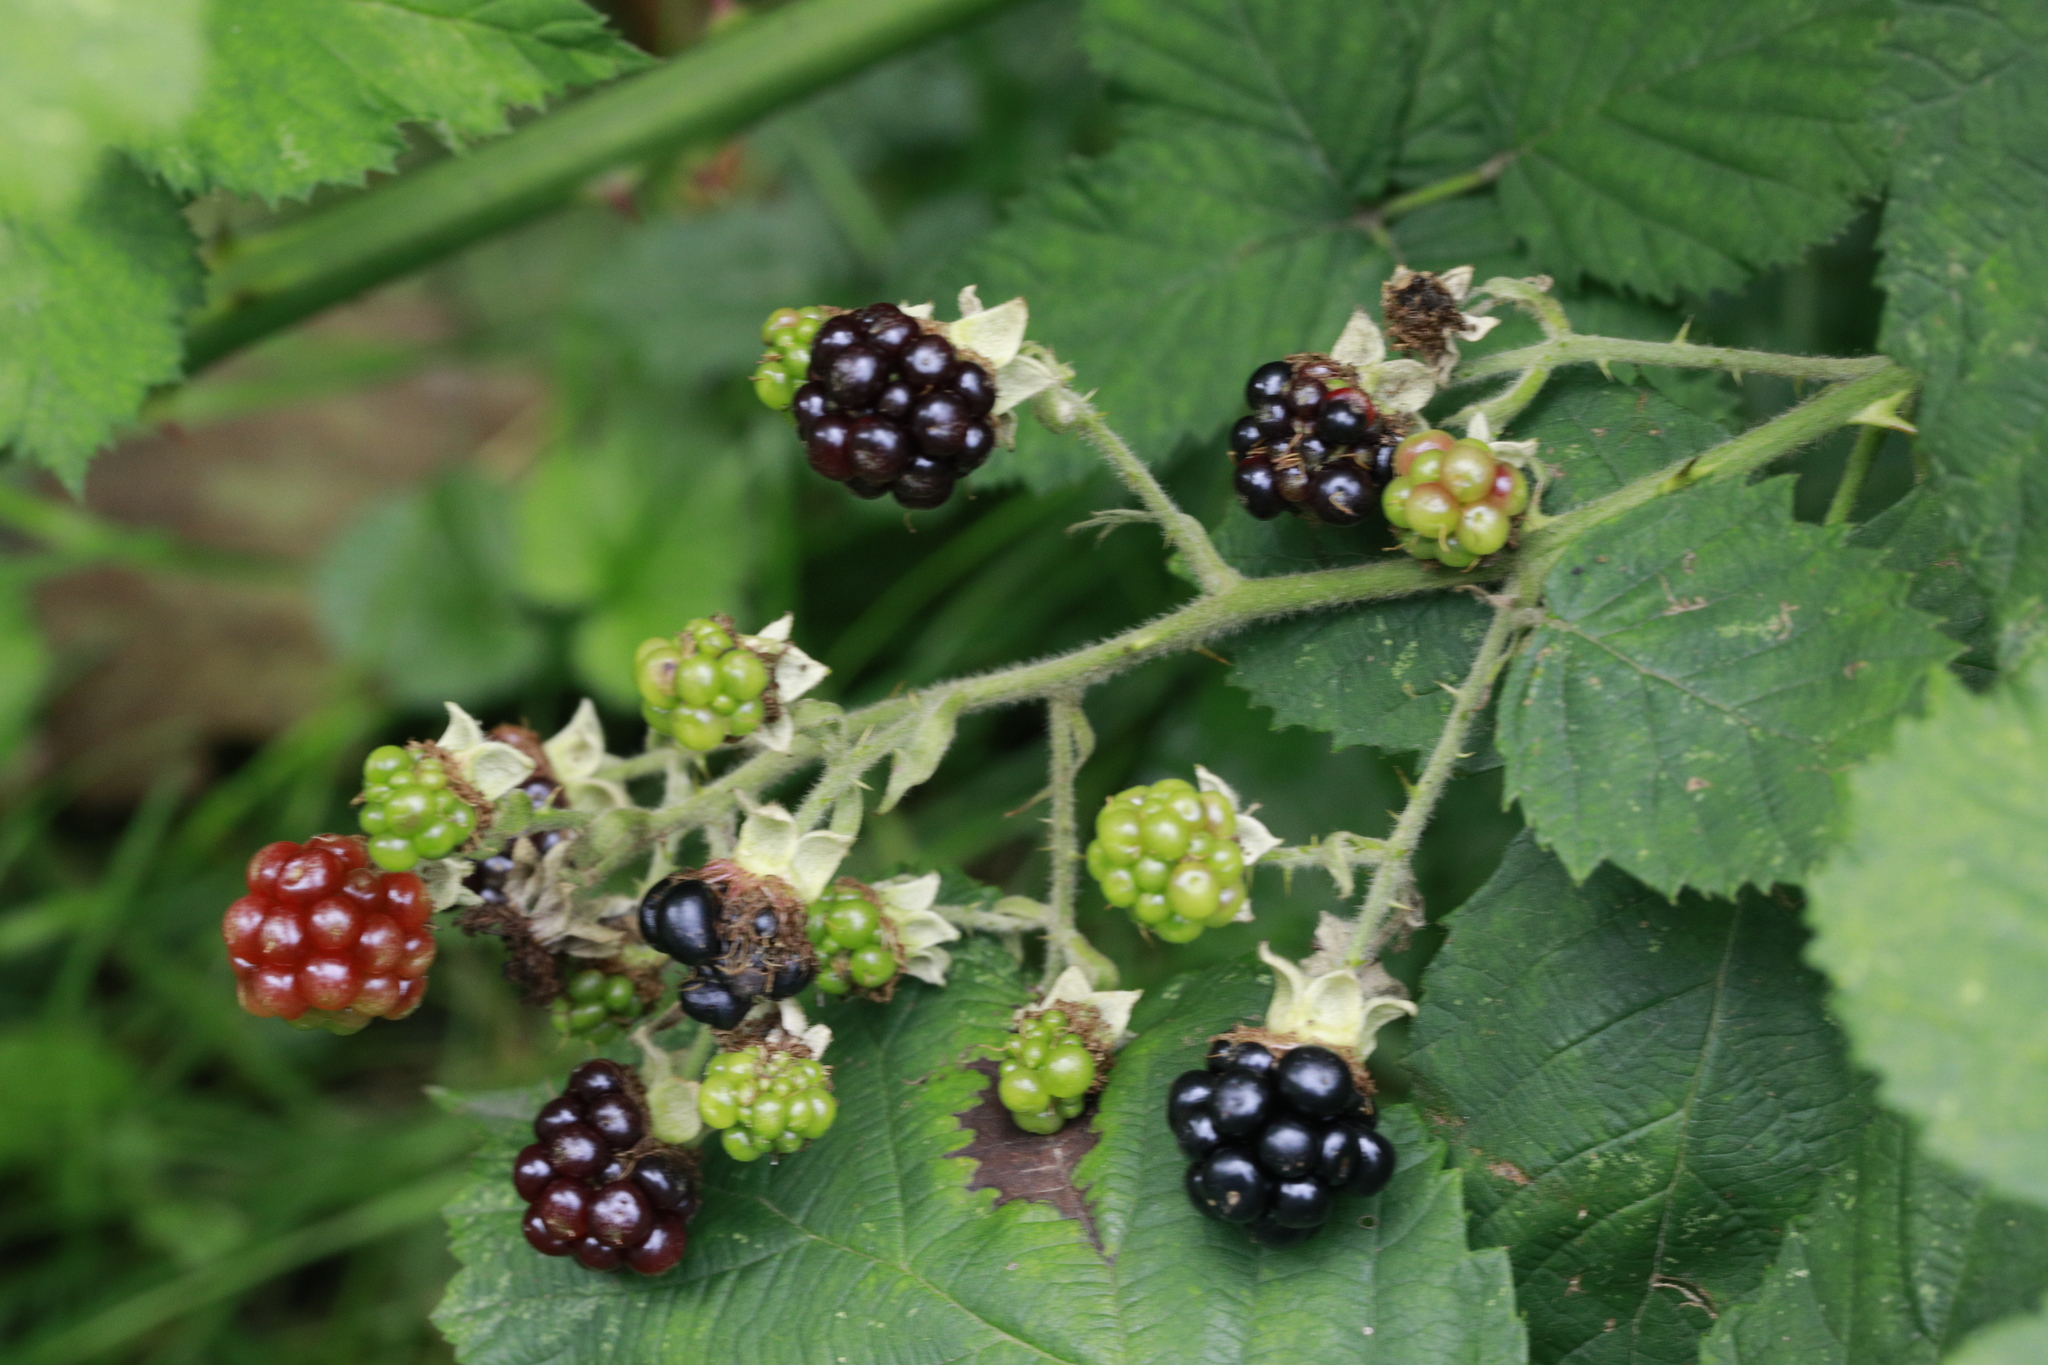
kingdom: Plantae
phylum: Tracheophyta
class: Magnoliopsida
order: Rosales
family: Rosaceae
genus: Rubus
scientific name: Rubus armeniacus
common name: Himalayan blackberry
